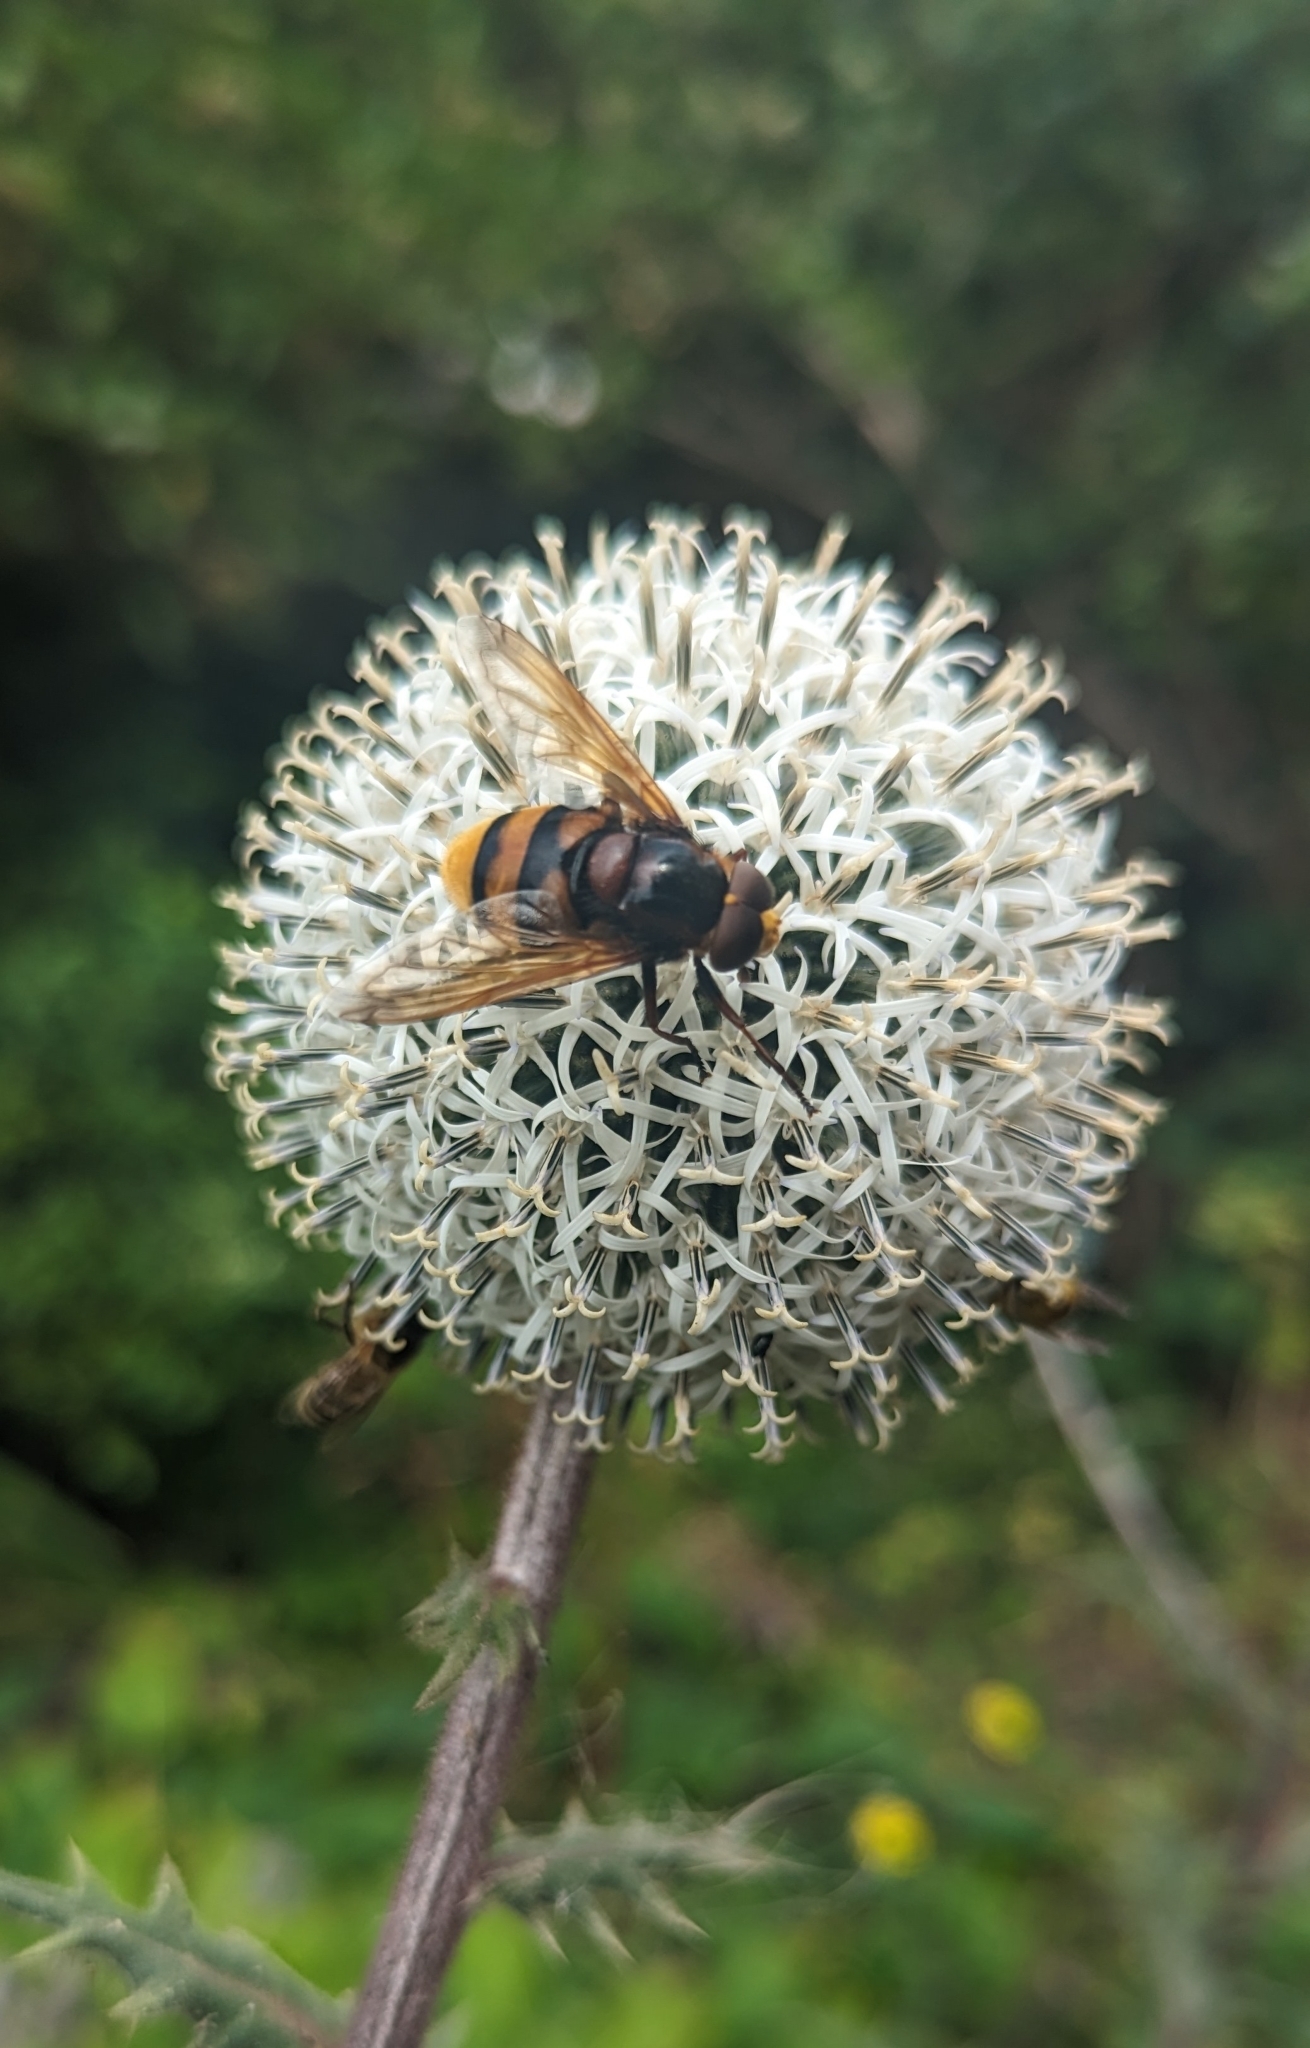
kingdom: Animalia
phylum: Arthropoda
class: Insecta
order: Diptera
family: Syrphidae
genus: Volucella
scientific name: Volucella zonaria
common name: Hornet hoverfly
